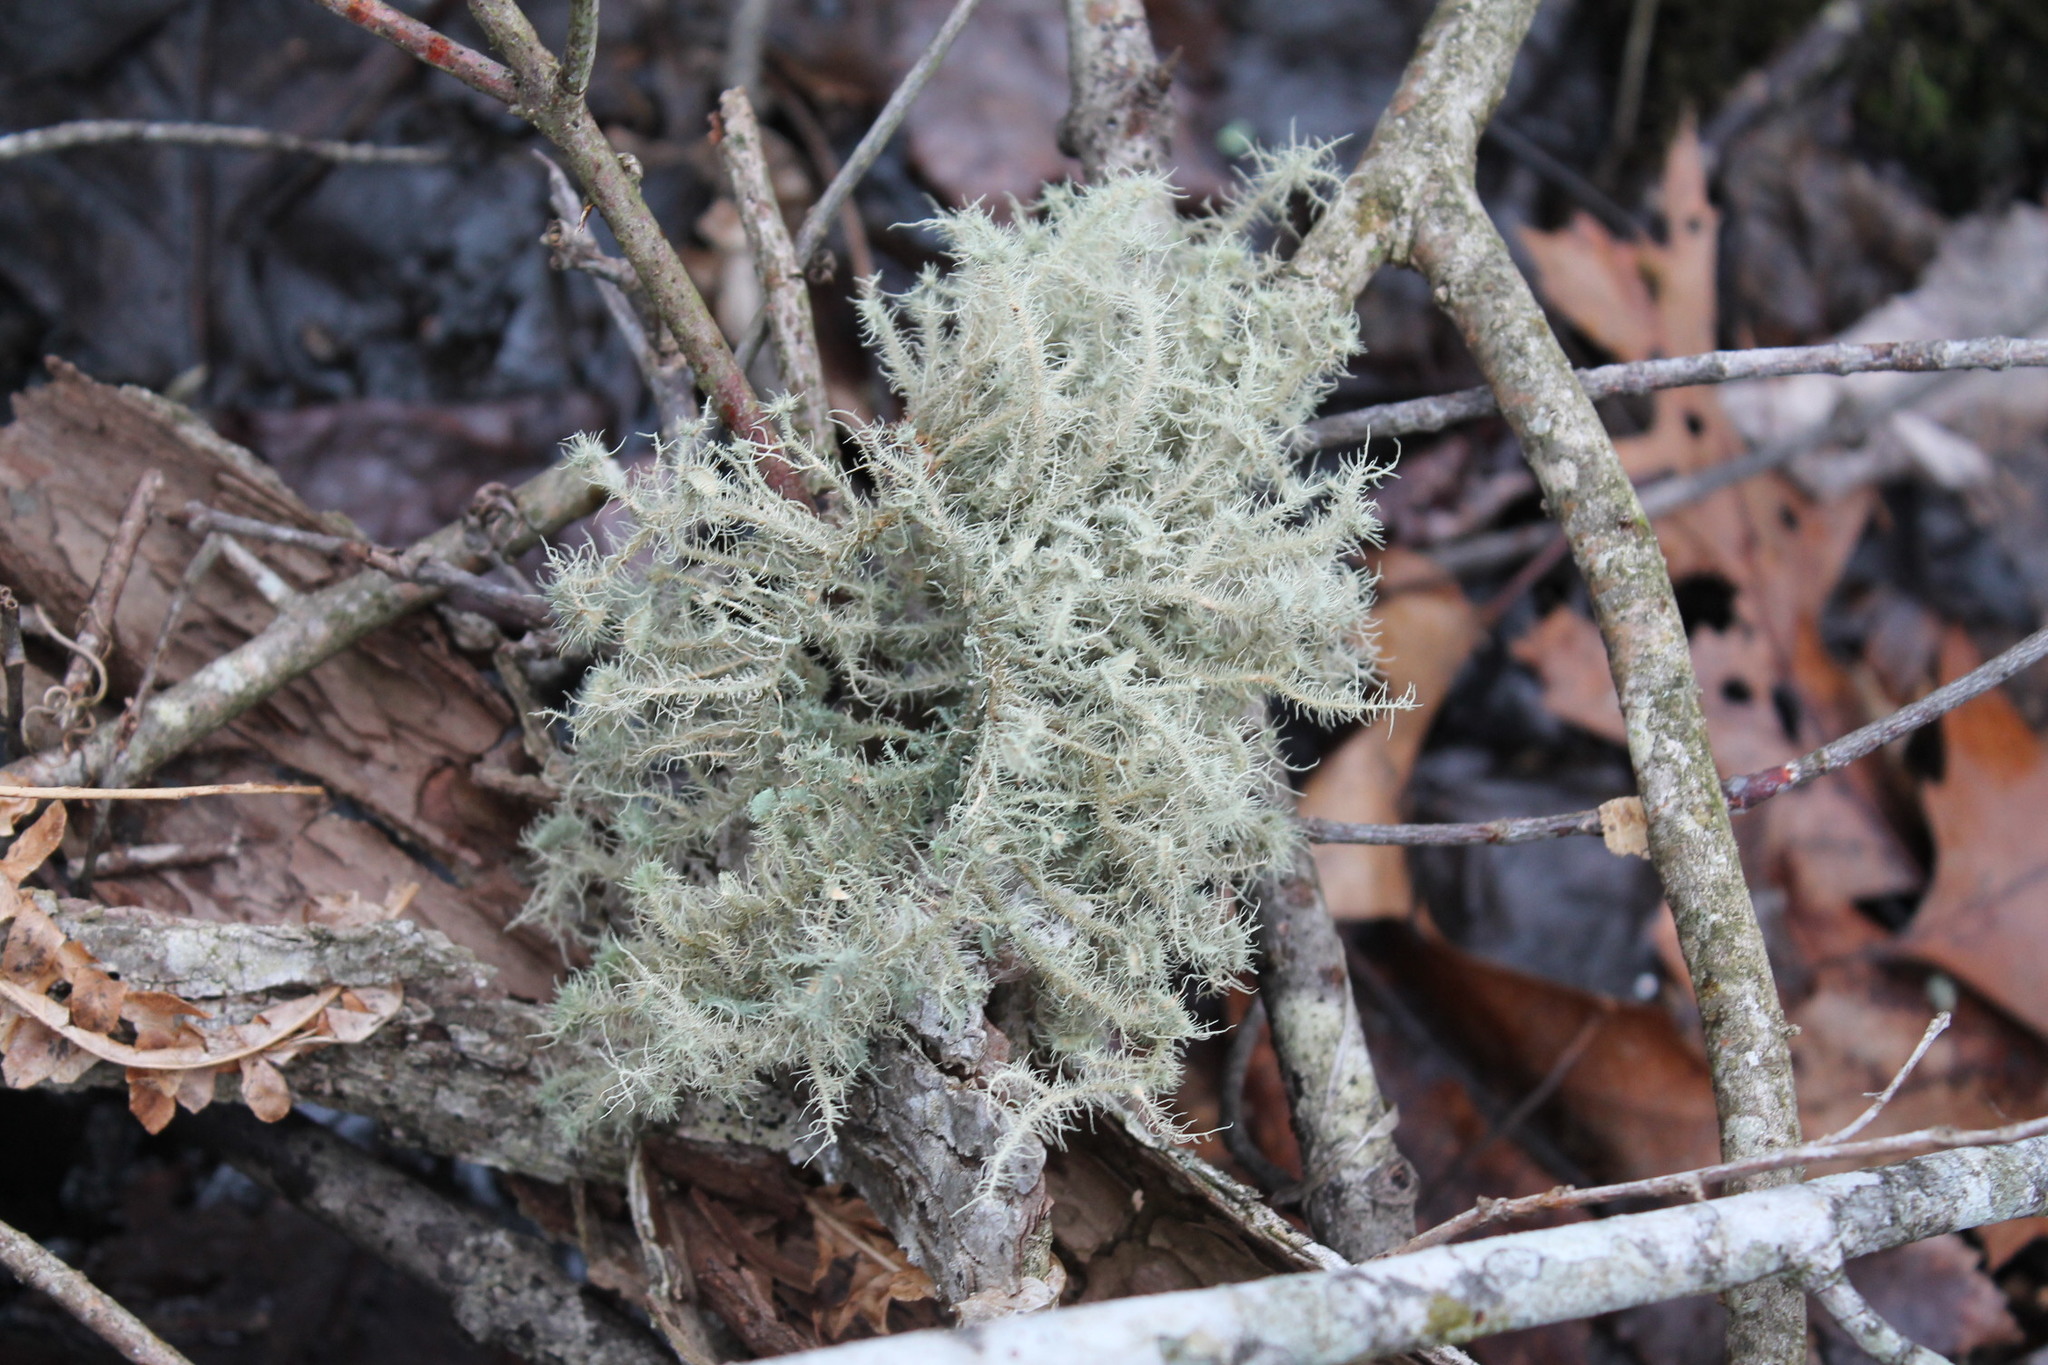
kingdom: Fungi
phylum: Ascomycota
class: Lecanoromycetes
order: Lecanorales
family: Parmeliaceae
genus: Usnea
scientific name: Usnea strigosa
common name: Bushy beard lichen
